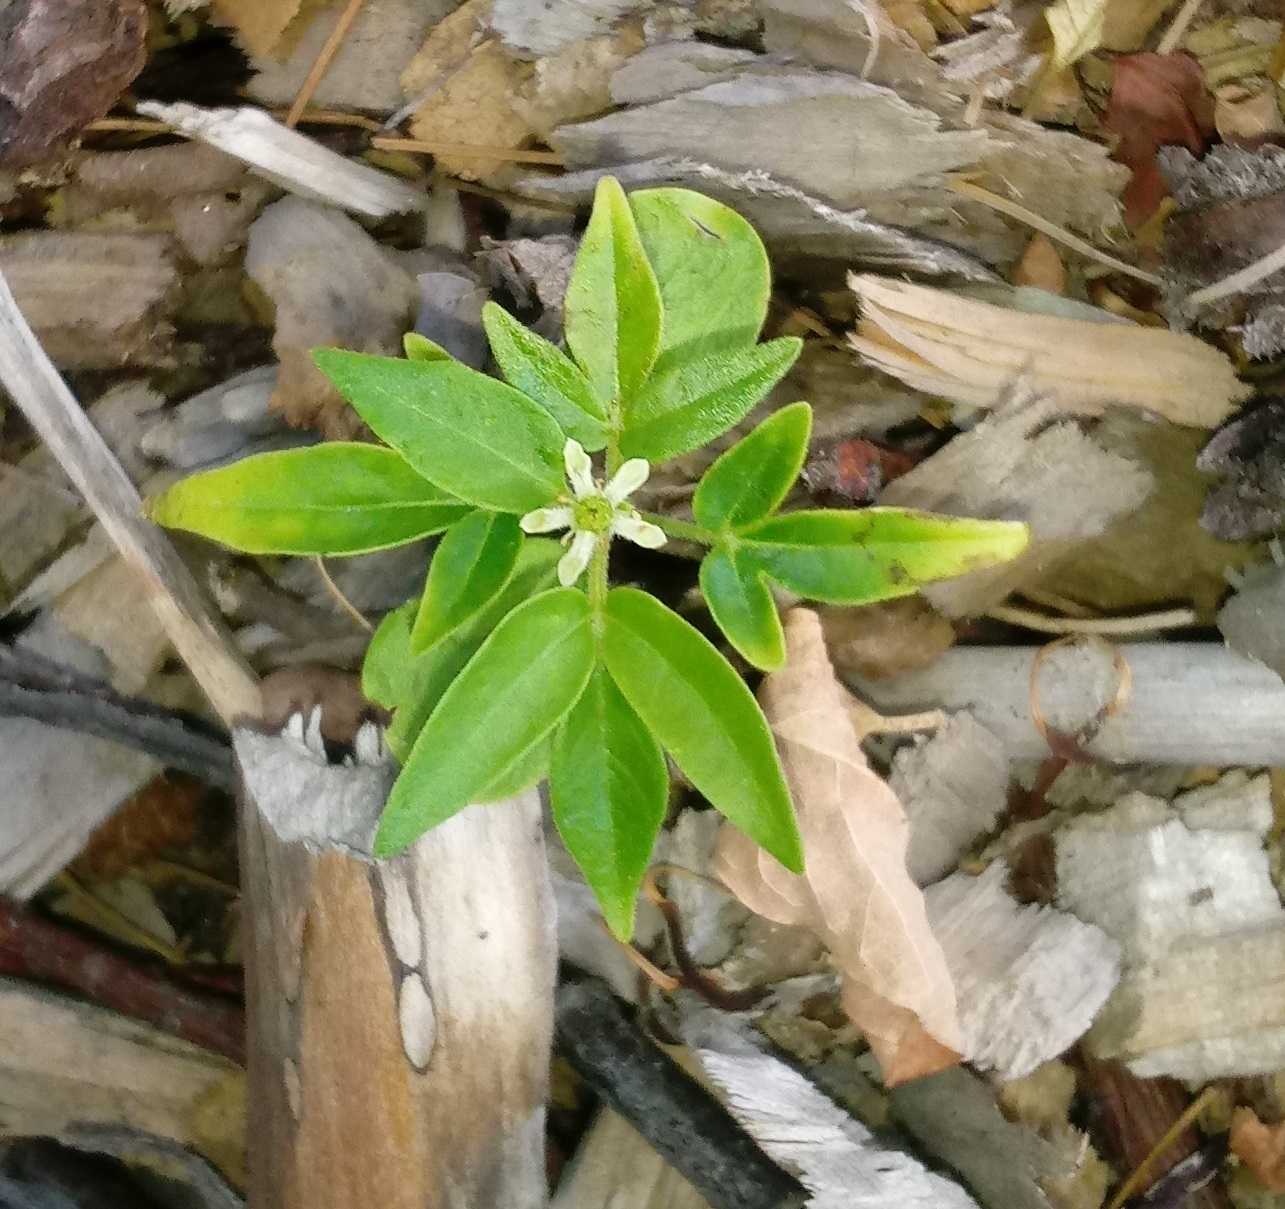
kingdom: Plantae
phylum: Tracheophyta
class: Magnoliopsida
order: Sapindales
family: Simaroubaceae
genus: Ailanthus
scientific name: Ailanthus altissima
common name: Tree-of-heaven
